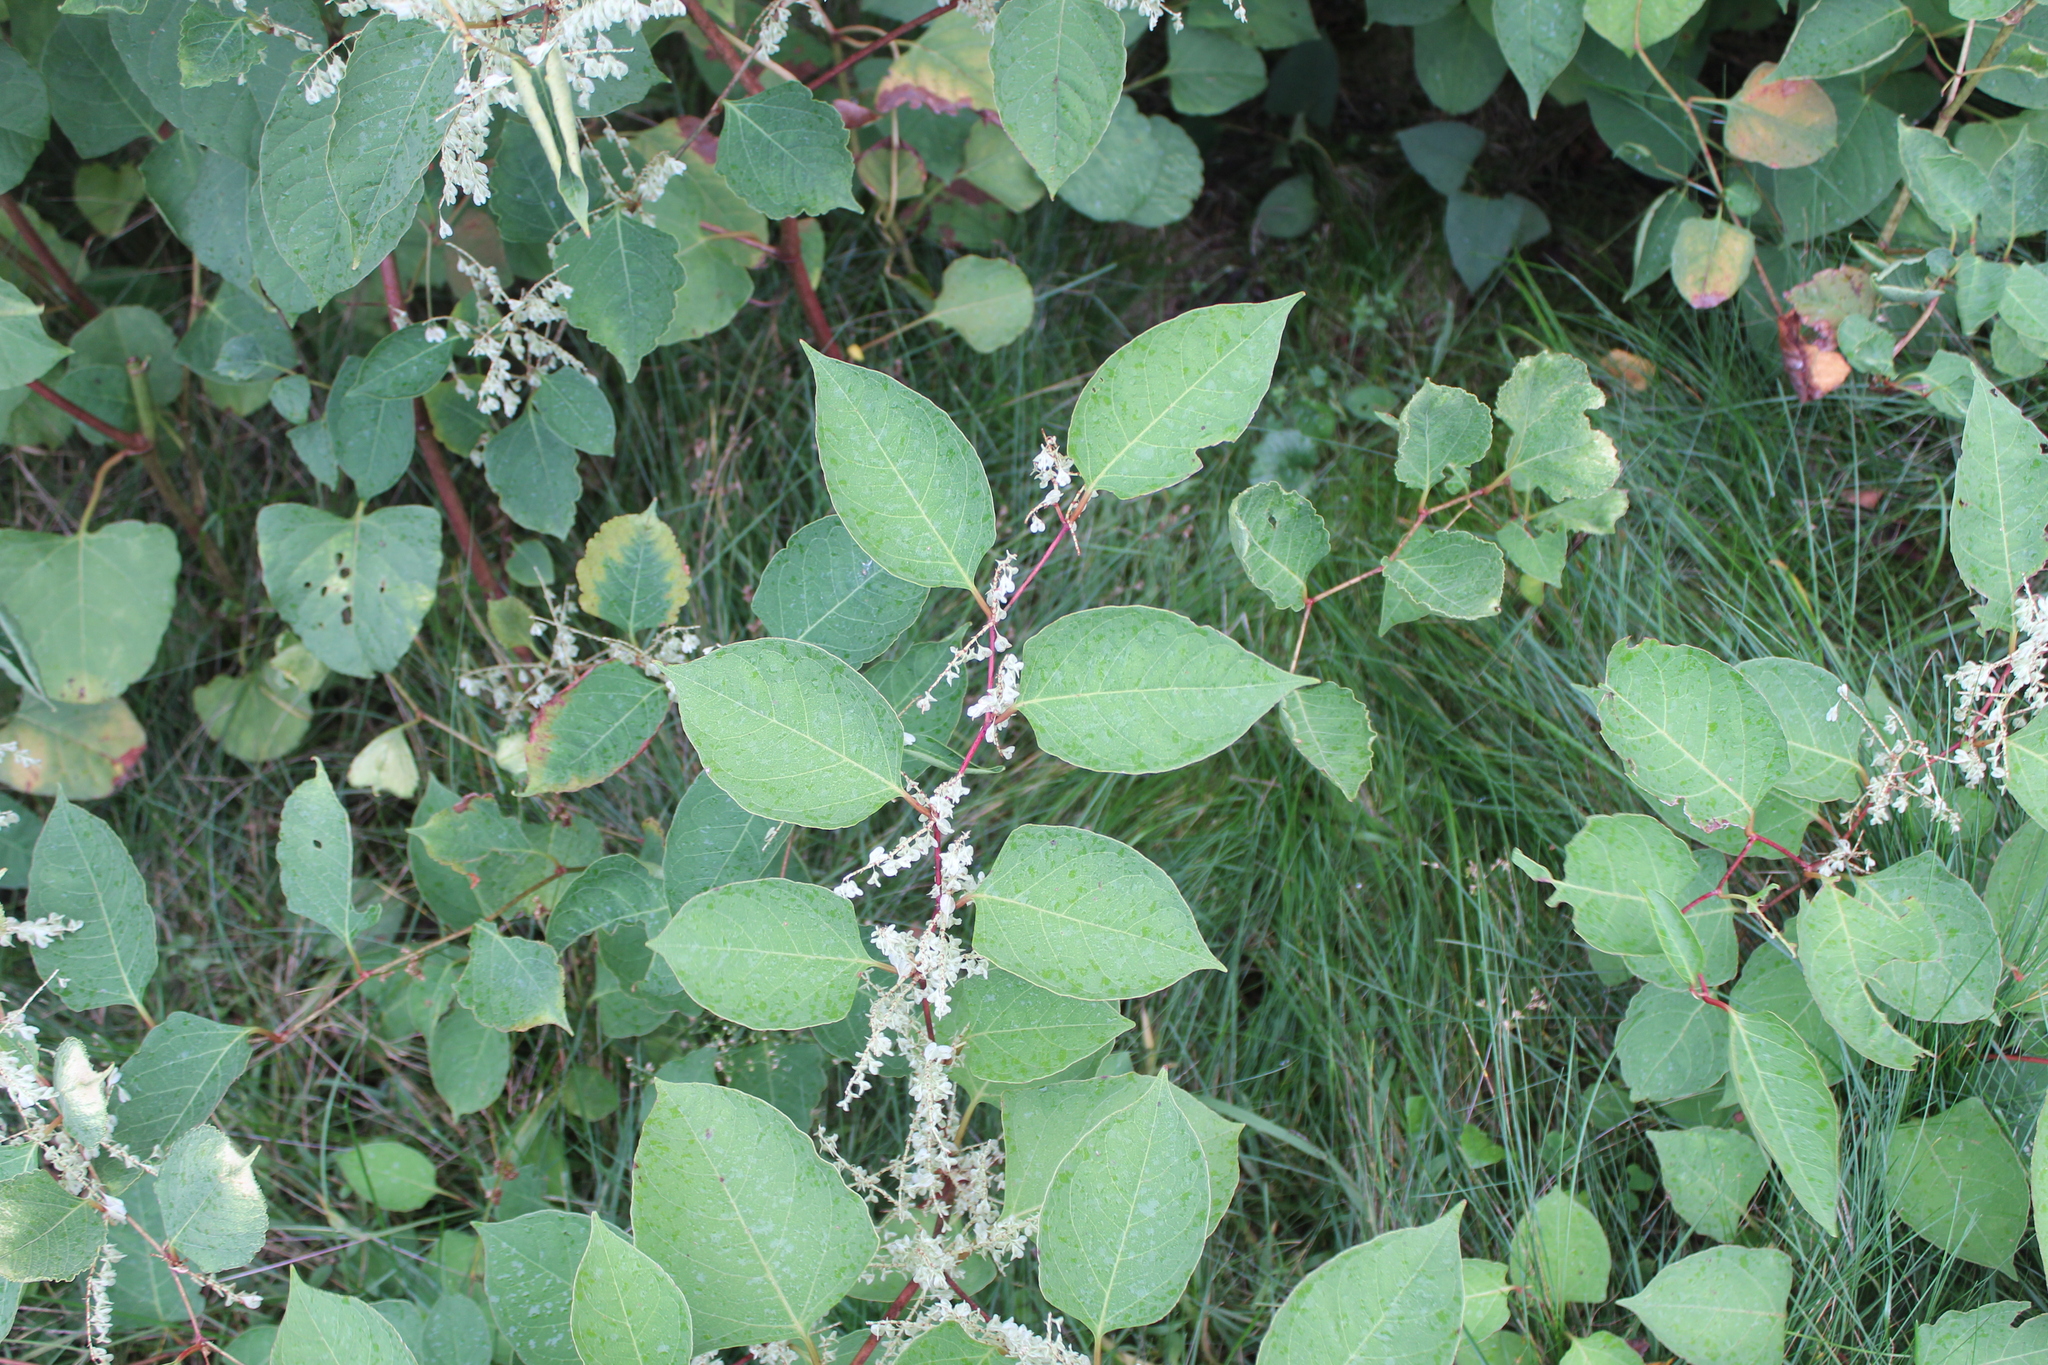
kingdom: Plantae
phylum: Tracheophyta
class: Magnoliopsida
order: Caryophyllales
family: Polygonaceae
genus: Reynoutria
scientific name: Reynoutria japonica
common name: Japanese knotweed
